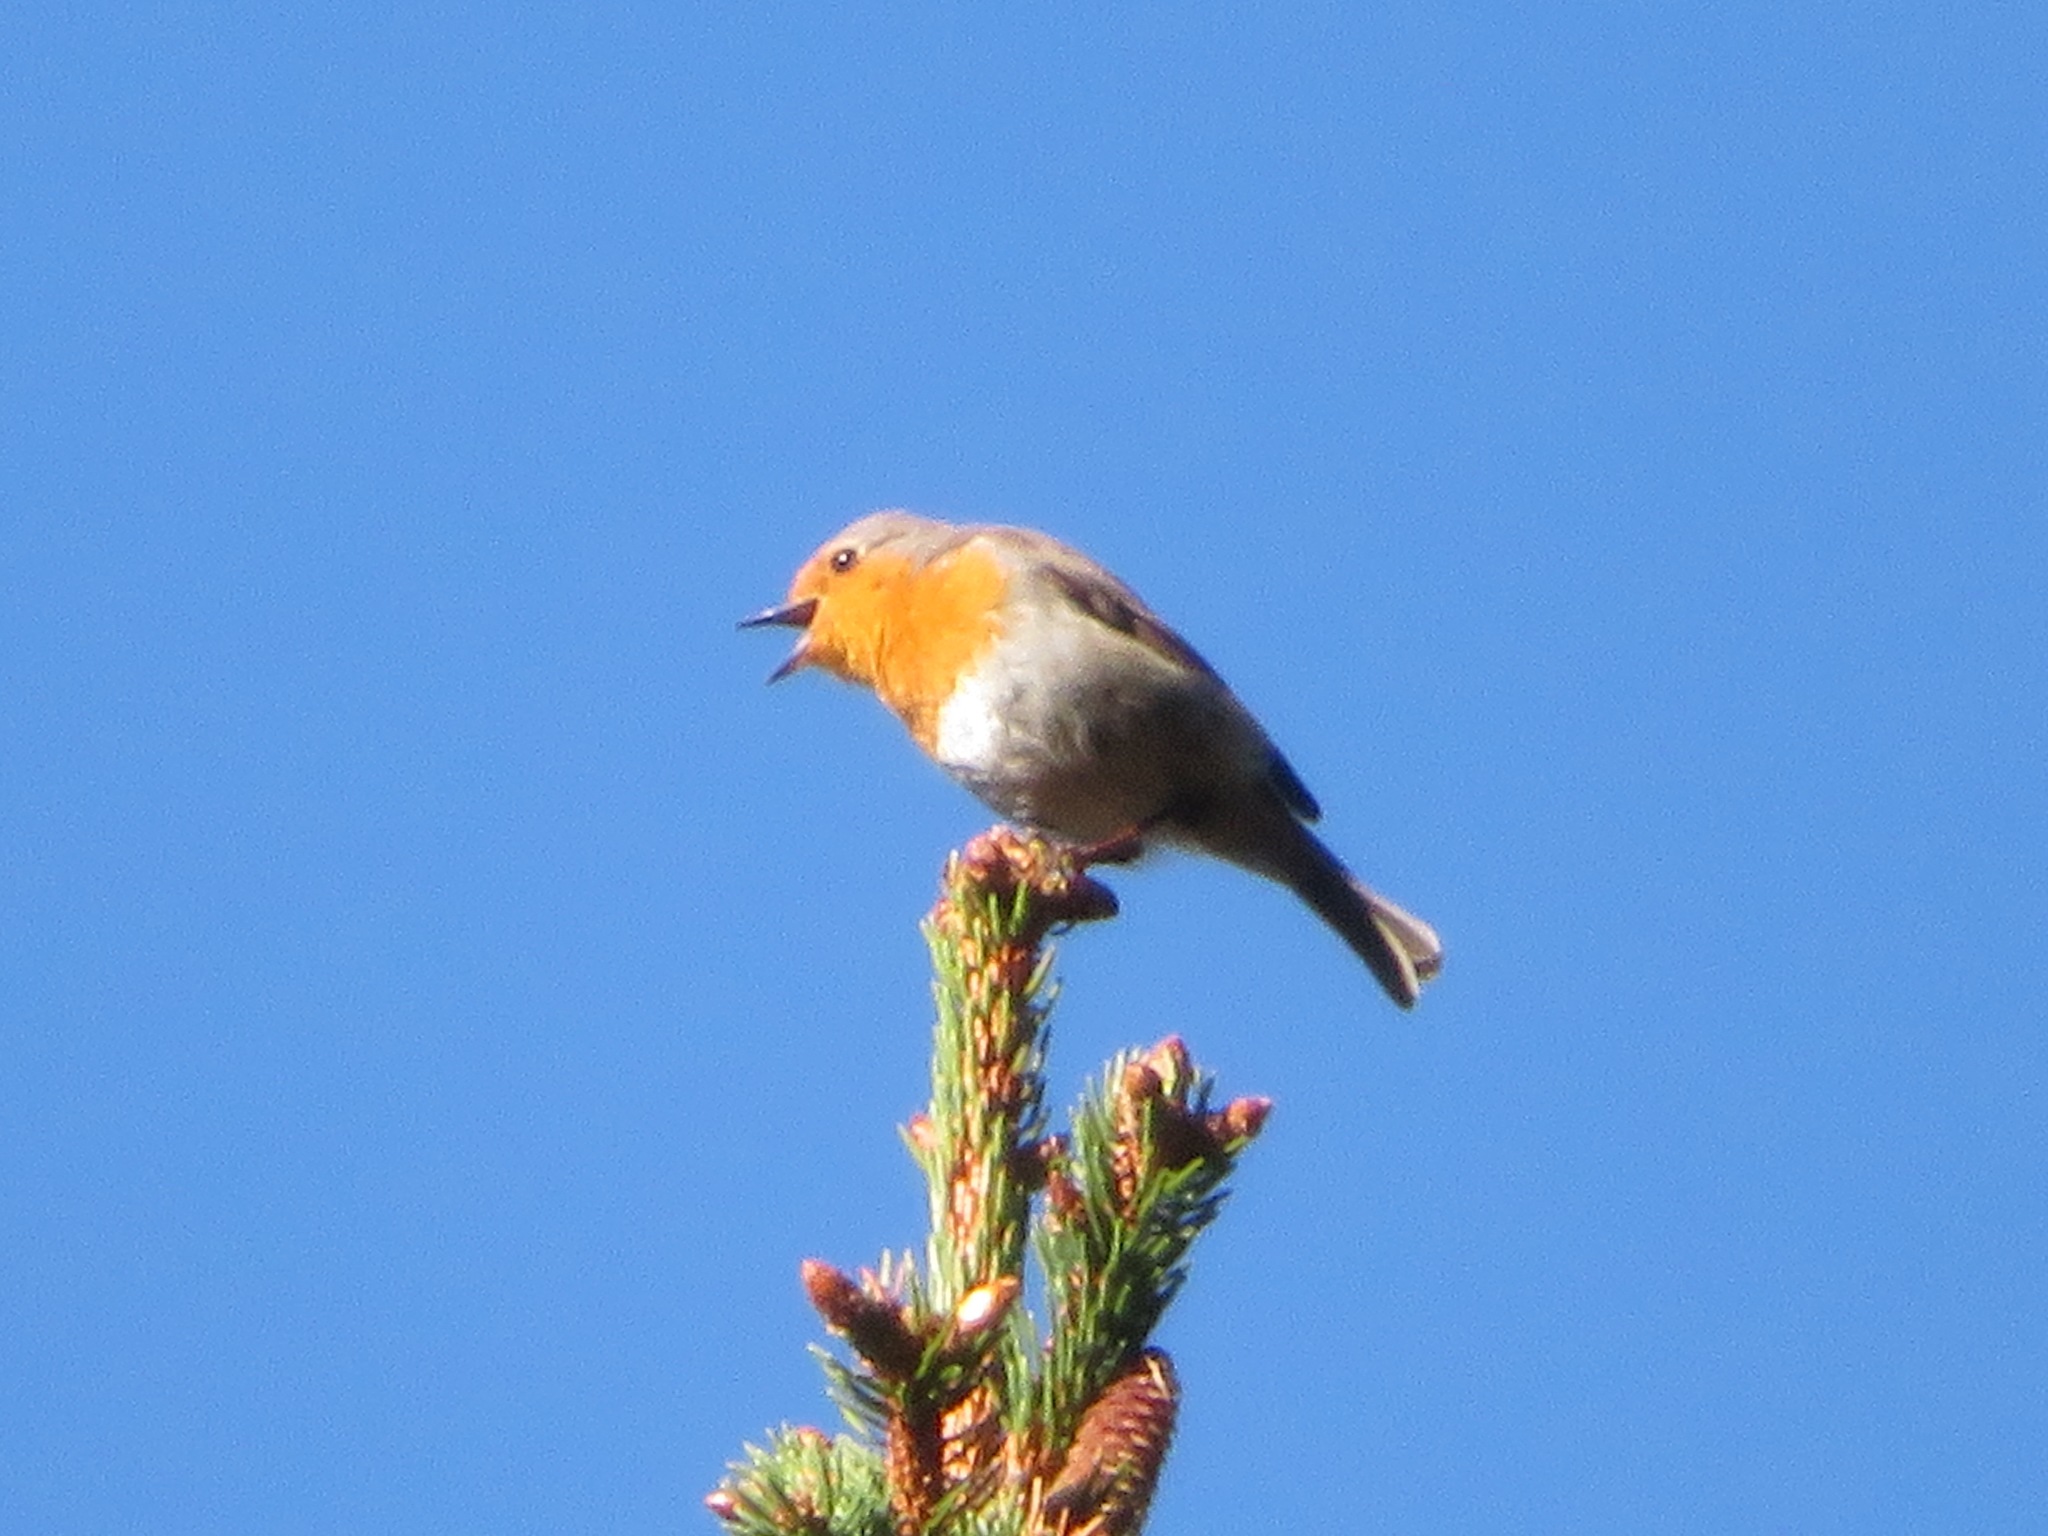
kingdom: Animalia
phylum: Chordata
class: Aves
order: Passeriformes
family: Muscicapidae
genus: Erithacus
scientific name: Erithacus rubecula
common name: European robin
